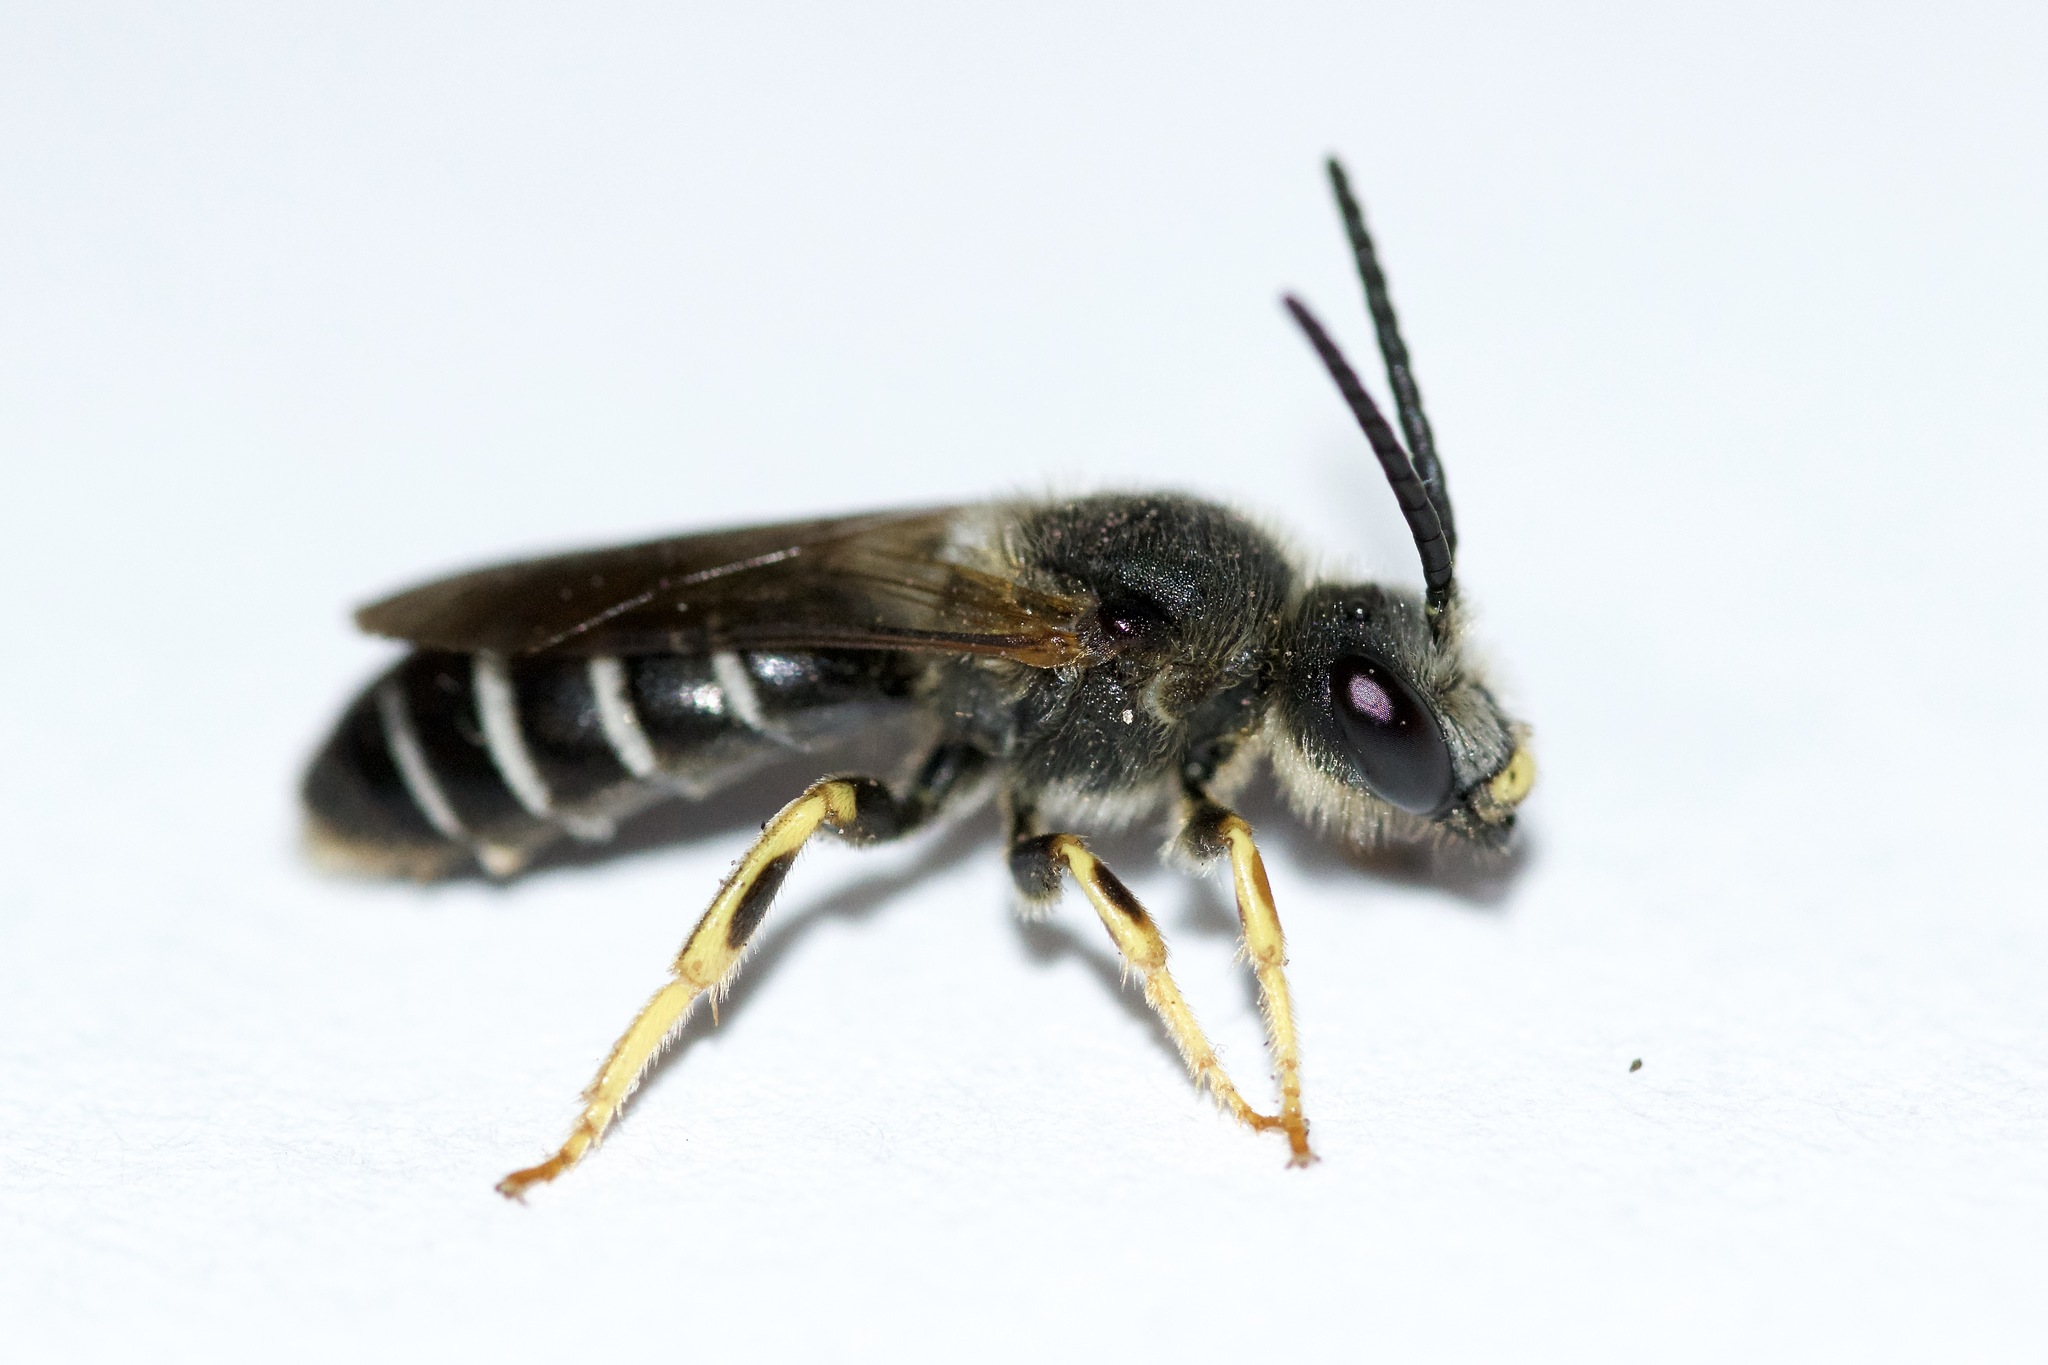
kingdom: Animalia
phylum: Arthropoda
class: Insecta
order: Hymenoptera
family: Halictidae
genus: Halictus
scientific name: Halictus rubicundus
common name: Orange-legged furrow bee
